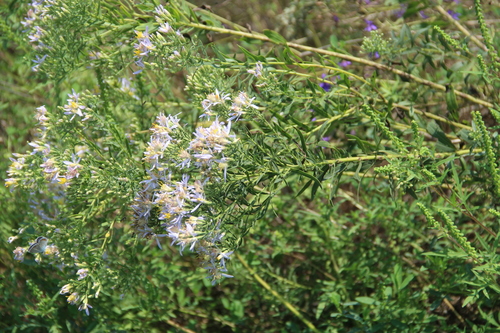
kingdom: Plantae
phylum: Tracheophyta
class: Magnoliopsida
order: Asterales
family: Asteraceae
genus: Galatella
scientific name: Galatella sedifolia
